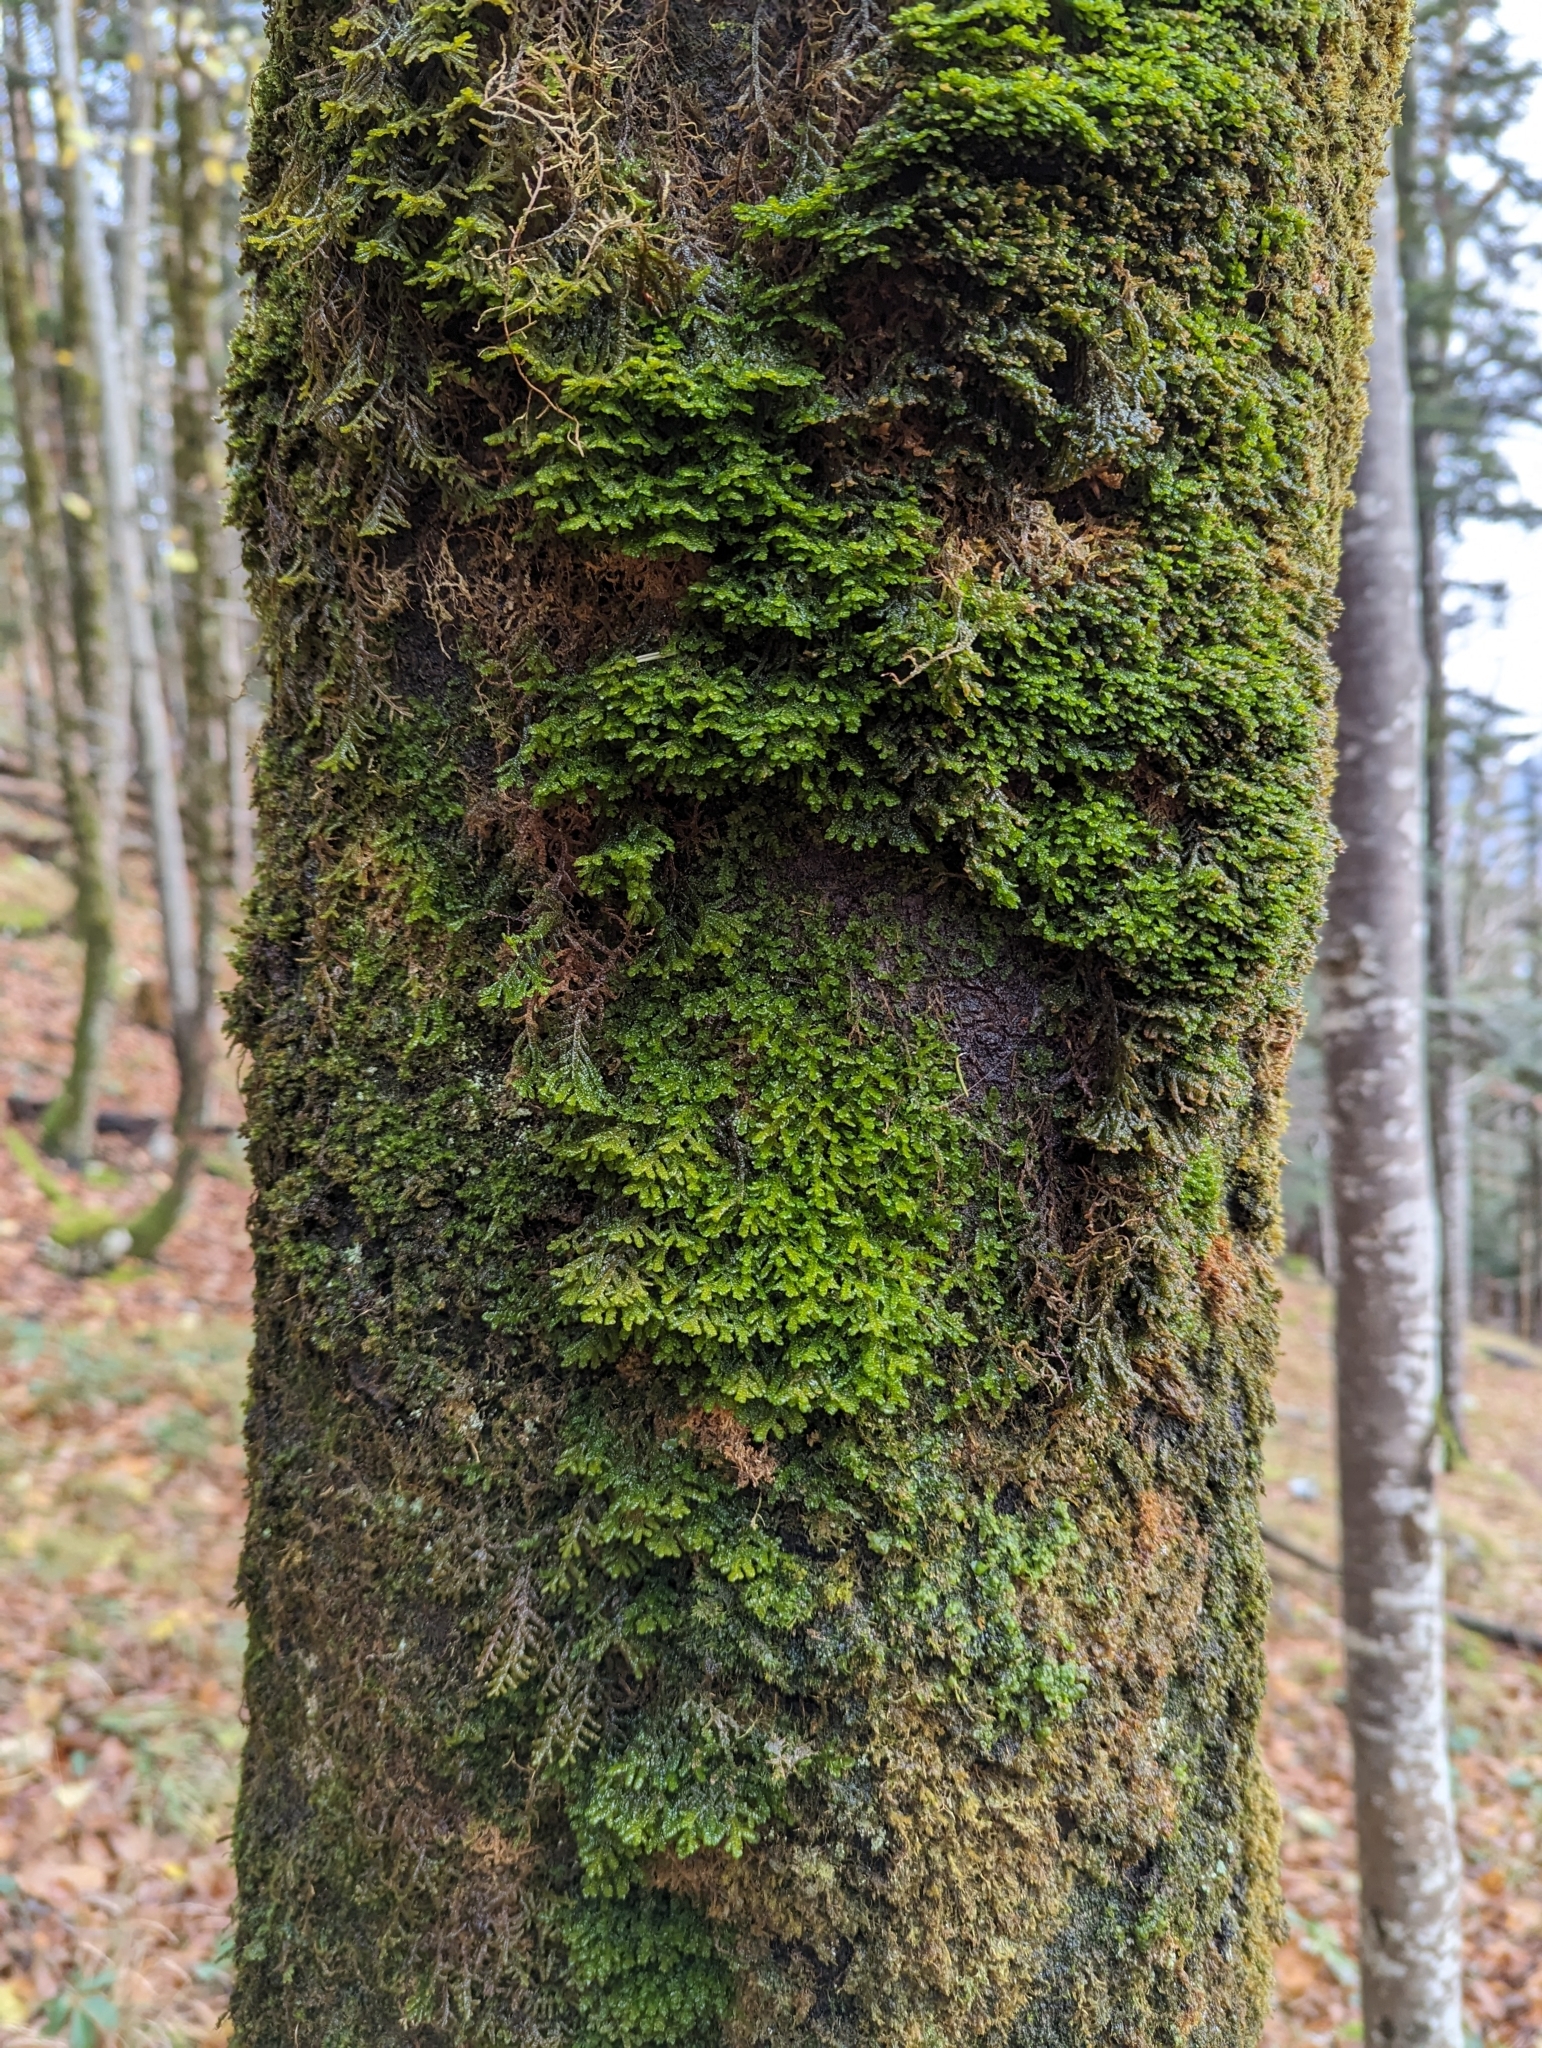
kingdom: Plantae
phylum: Marchantiophyta
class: Jungermanniopsida
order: Porellales
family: Porellaceae
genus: Porella
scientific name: Porella platyphylla
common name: Wall scalewort
